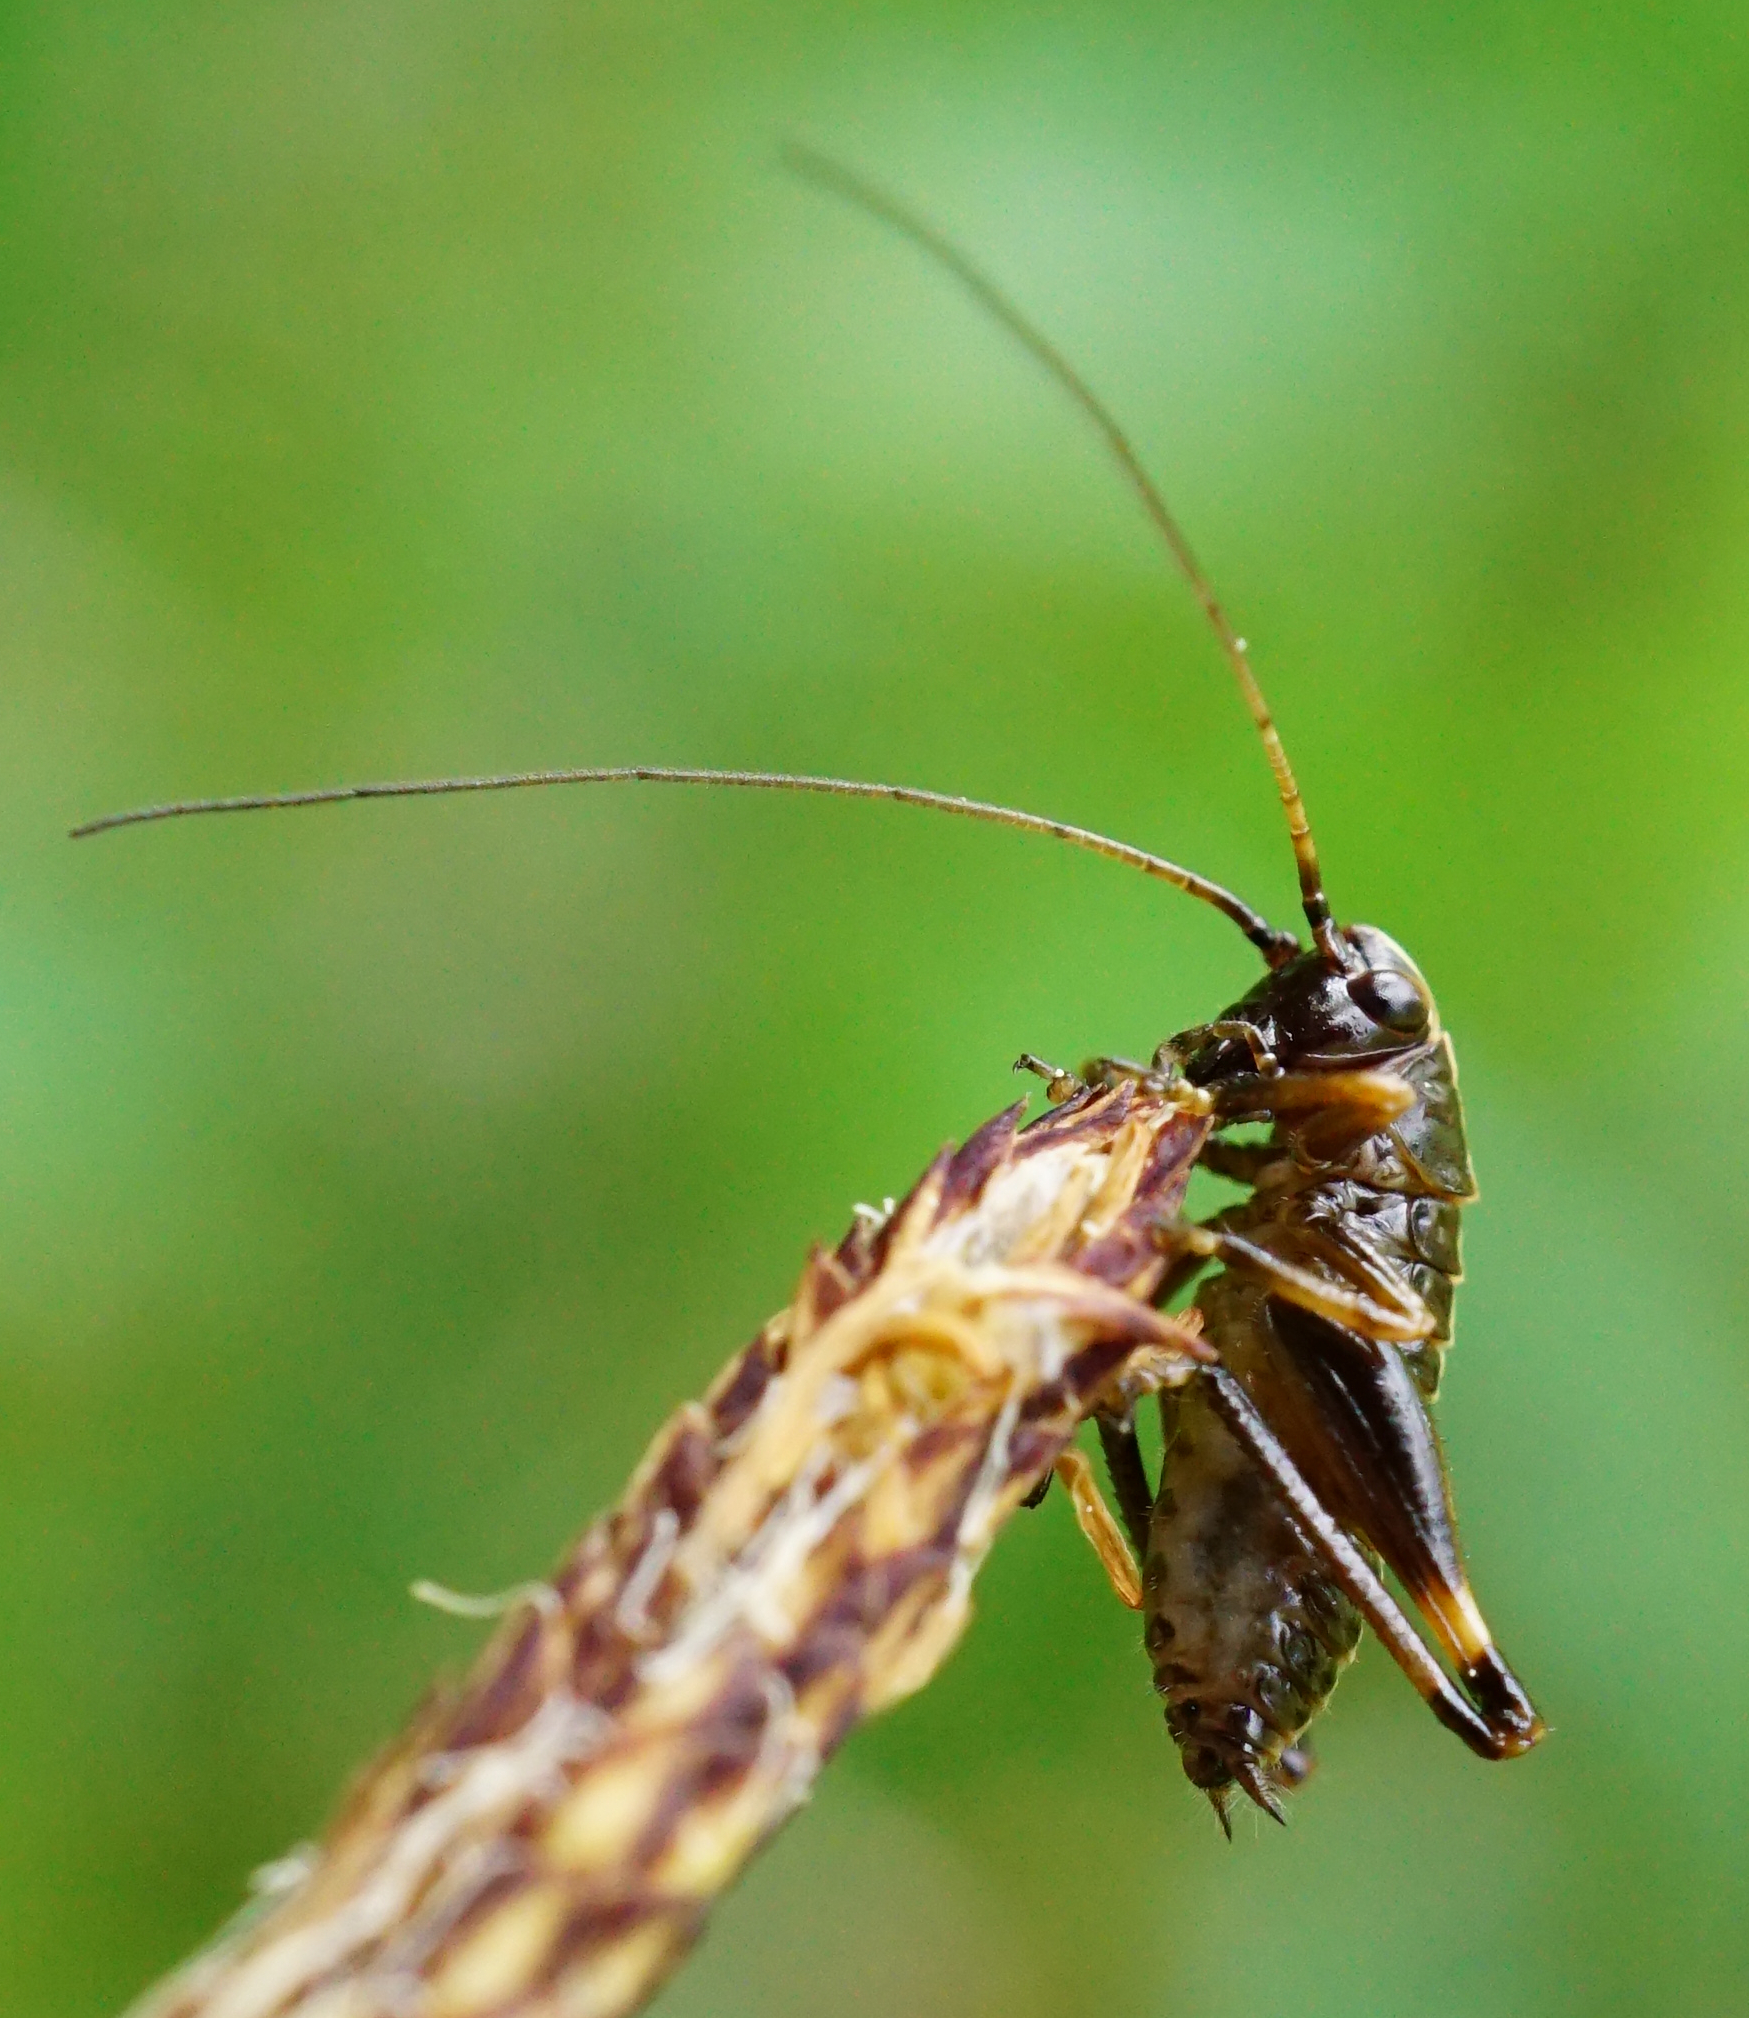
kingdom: Animalia
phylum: Arthropoda
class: Insecta
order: Orthoptera
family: Tettigoniidae
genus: Pholidoptera
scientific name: Pholidoptera griseoaptera
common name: Dark bush-cricket
